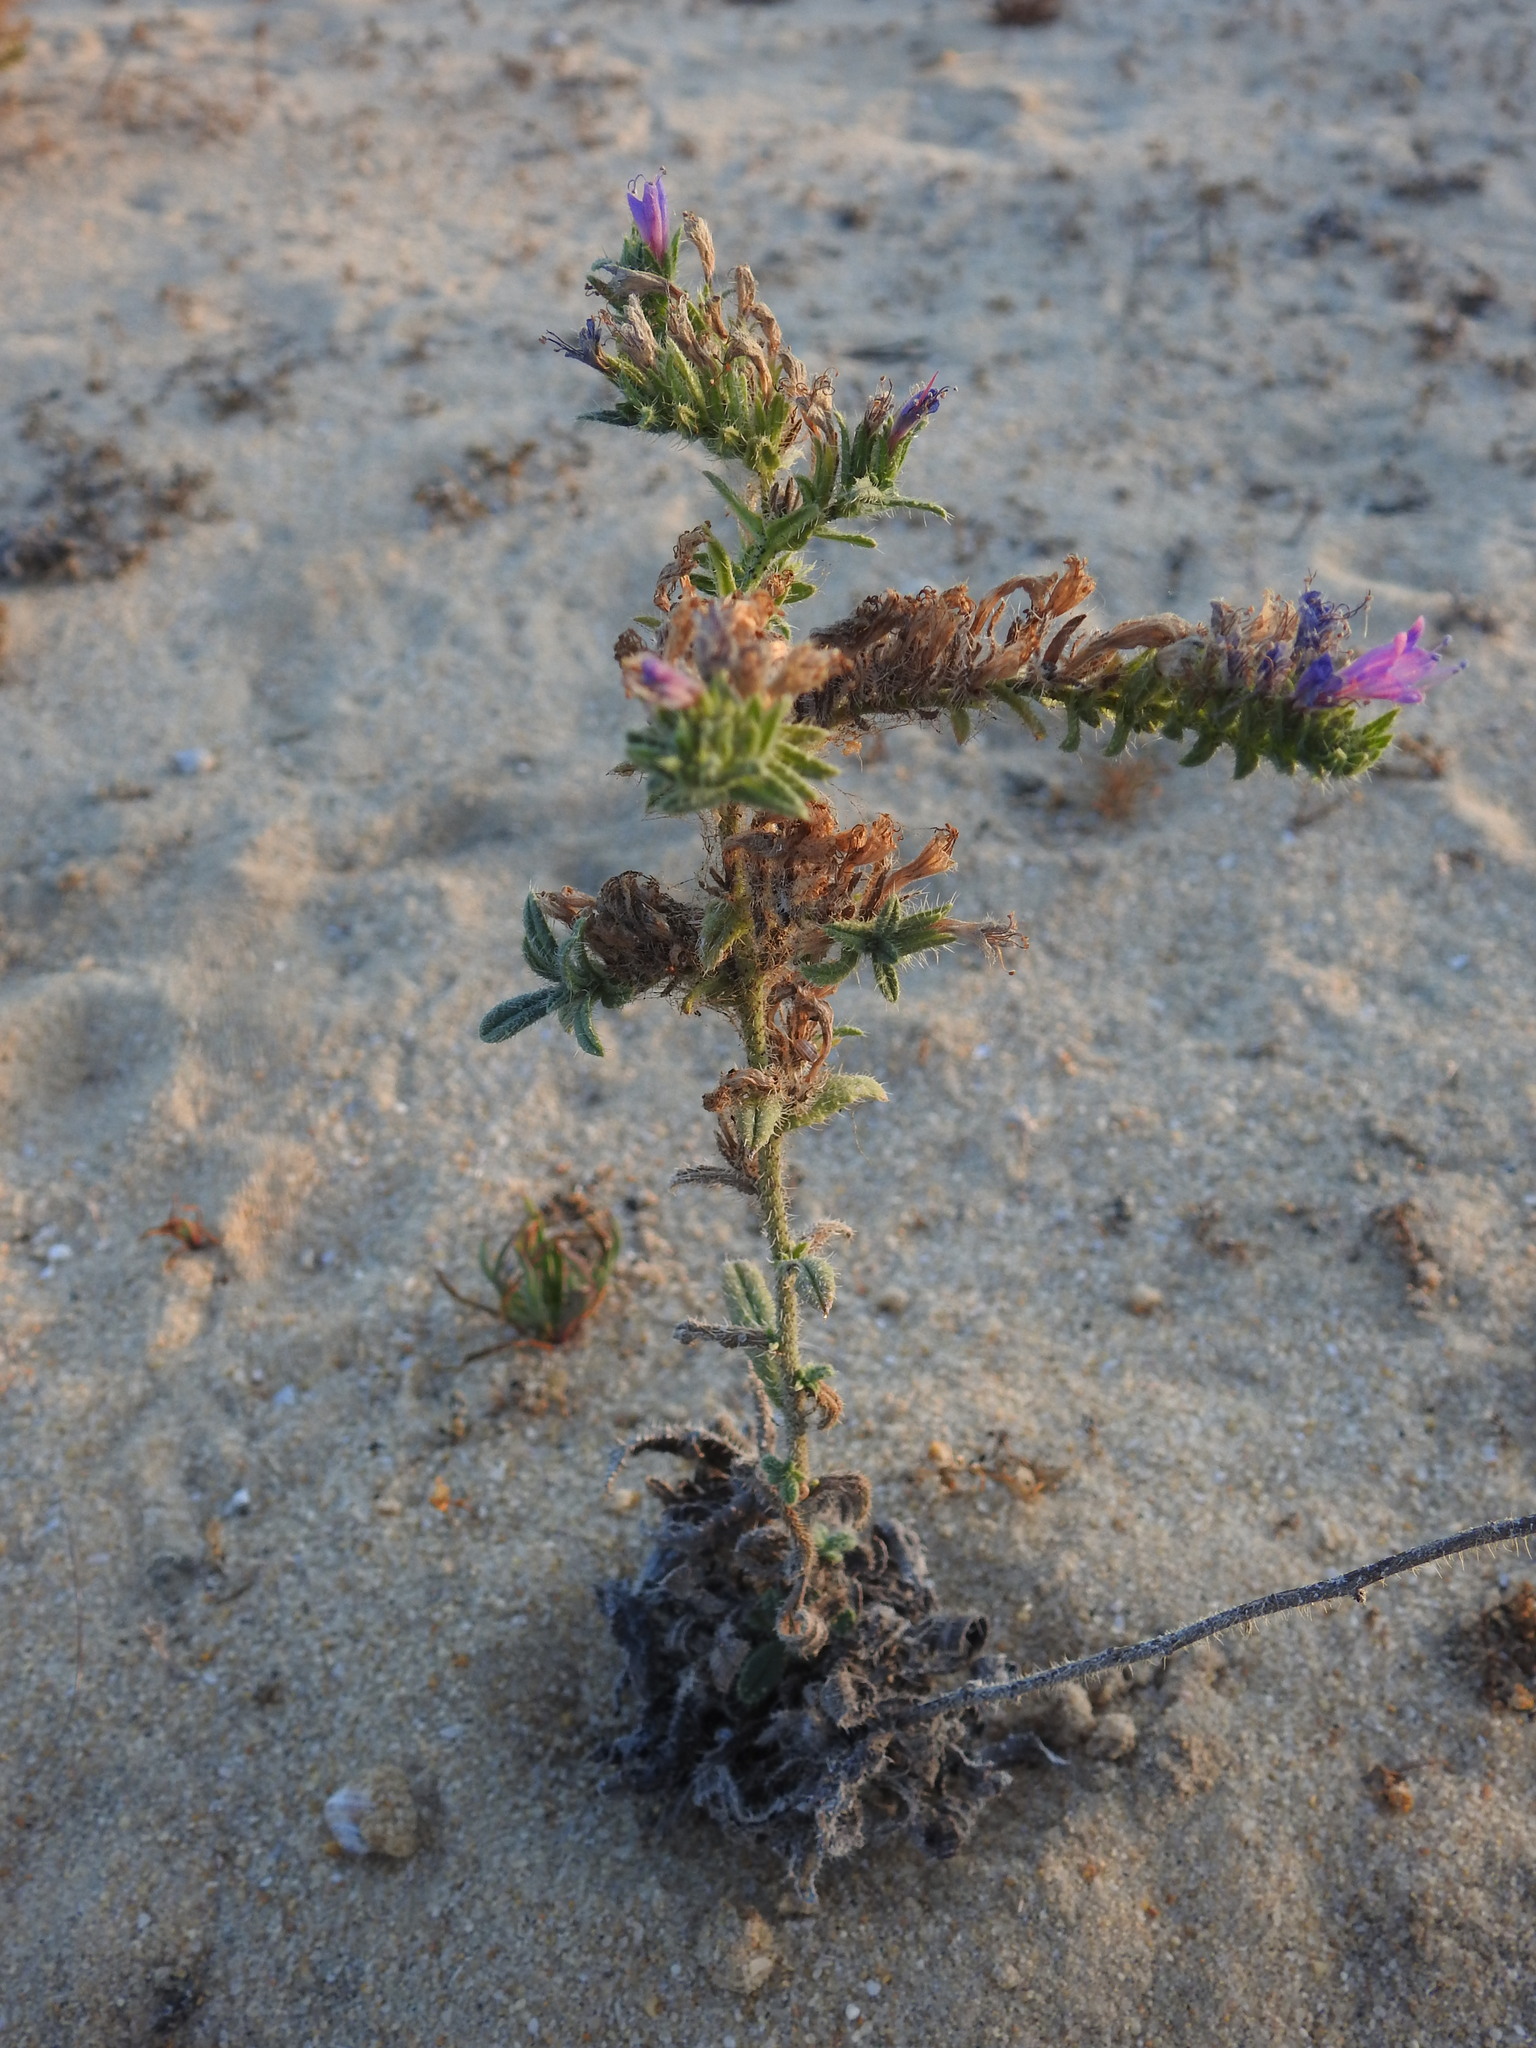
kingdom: Plantae
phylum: Tracheophyta
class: Magnoliopsida
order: Boraginales
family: Boraginaceae
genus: Echium
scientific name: Echium gaditanum
